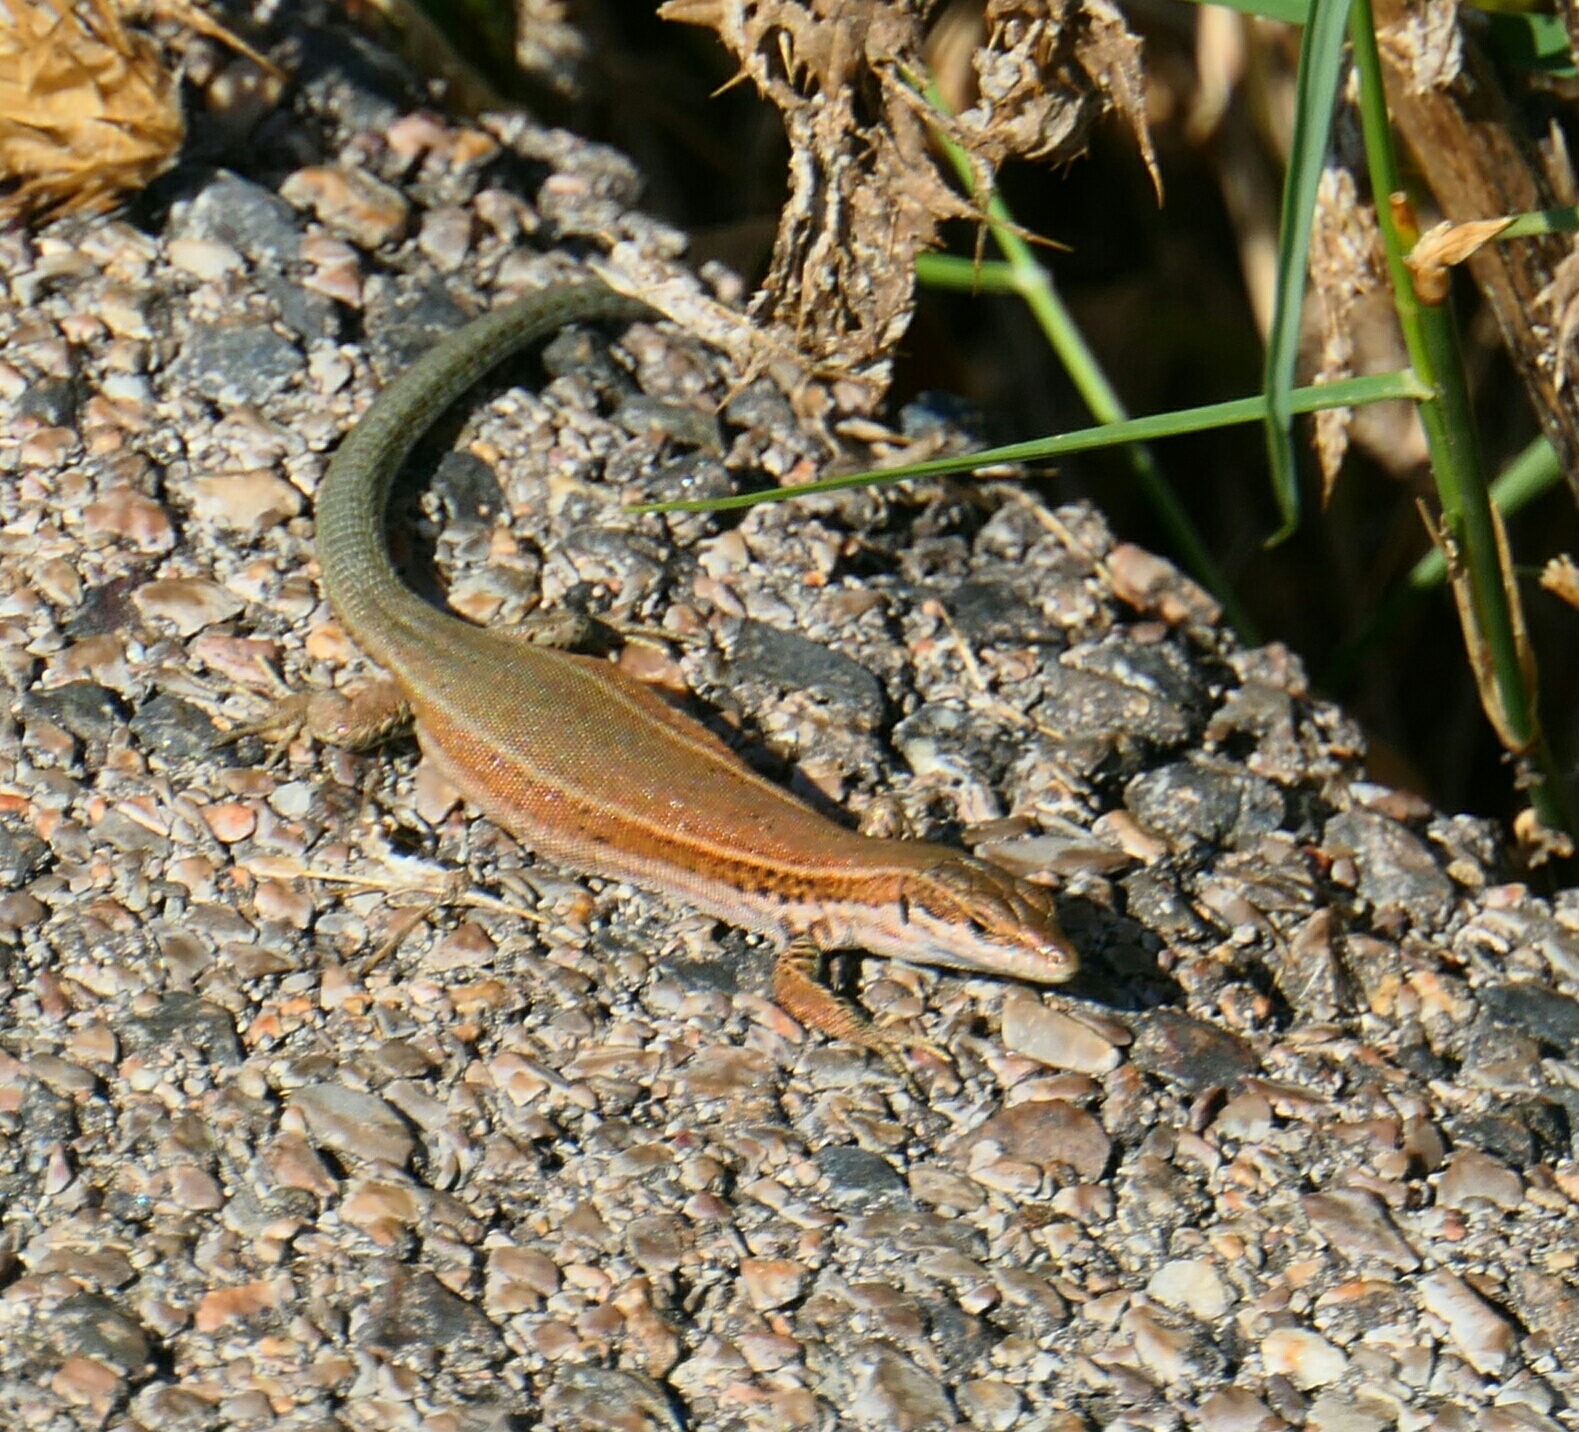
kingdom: Animalia
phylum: Chordata
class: Squamata
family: Lacertidae
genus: Podarcis
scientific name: Podarcis liolepis
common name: Catalonian wall lizard
